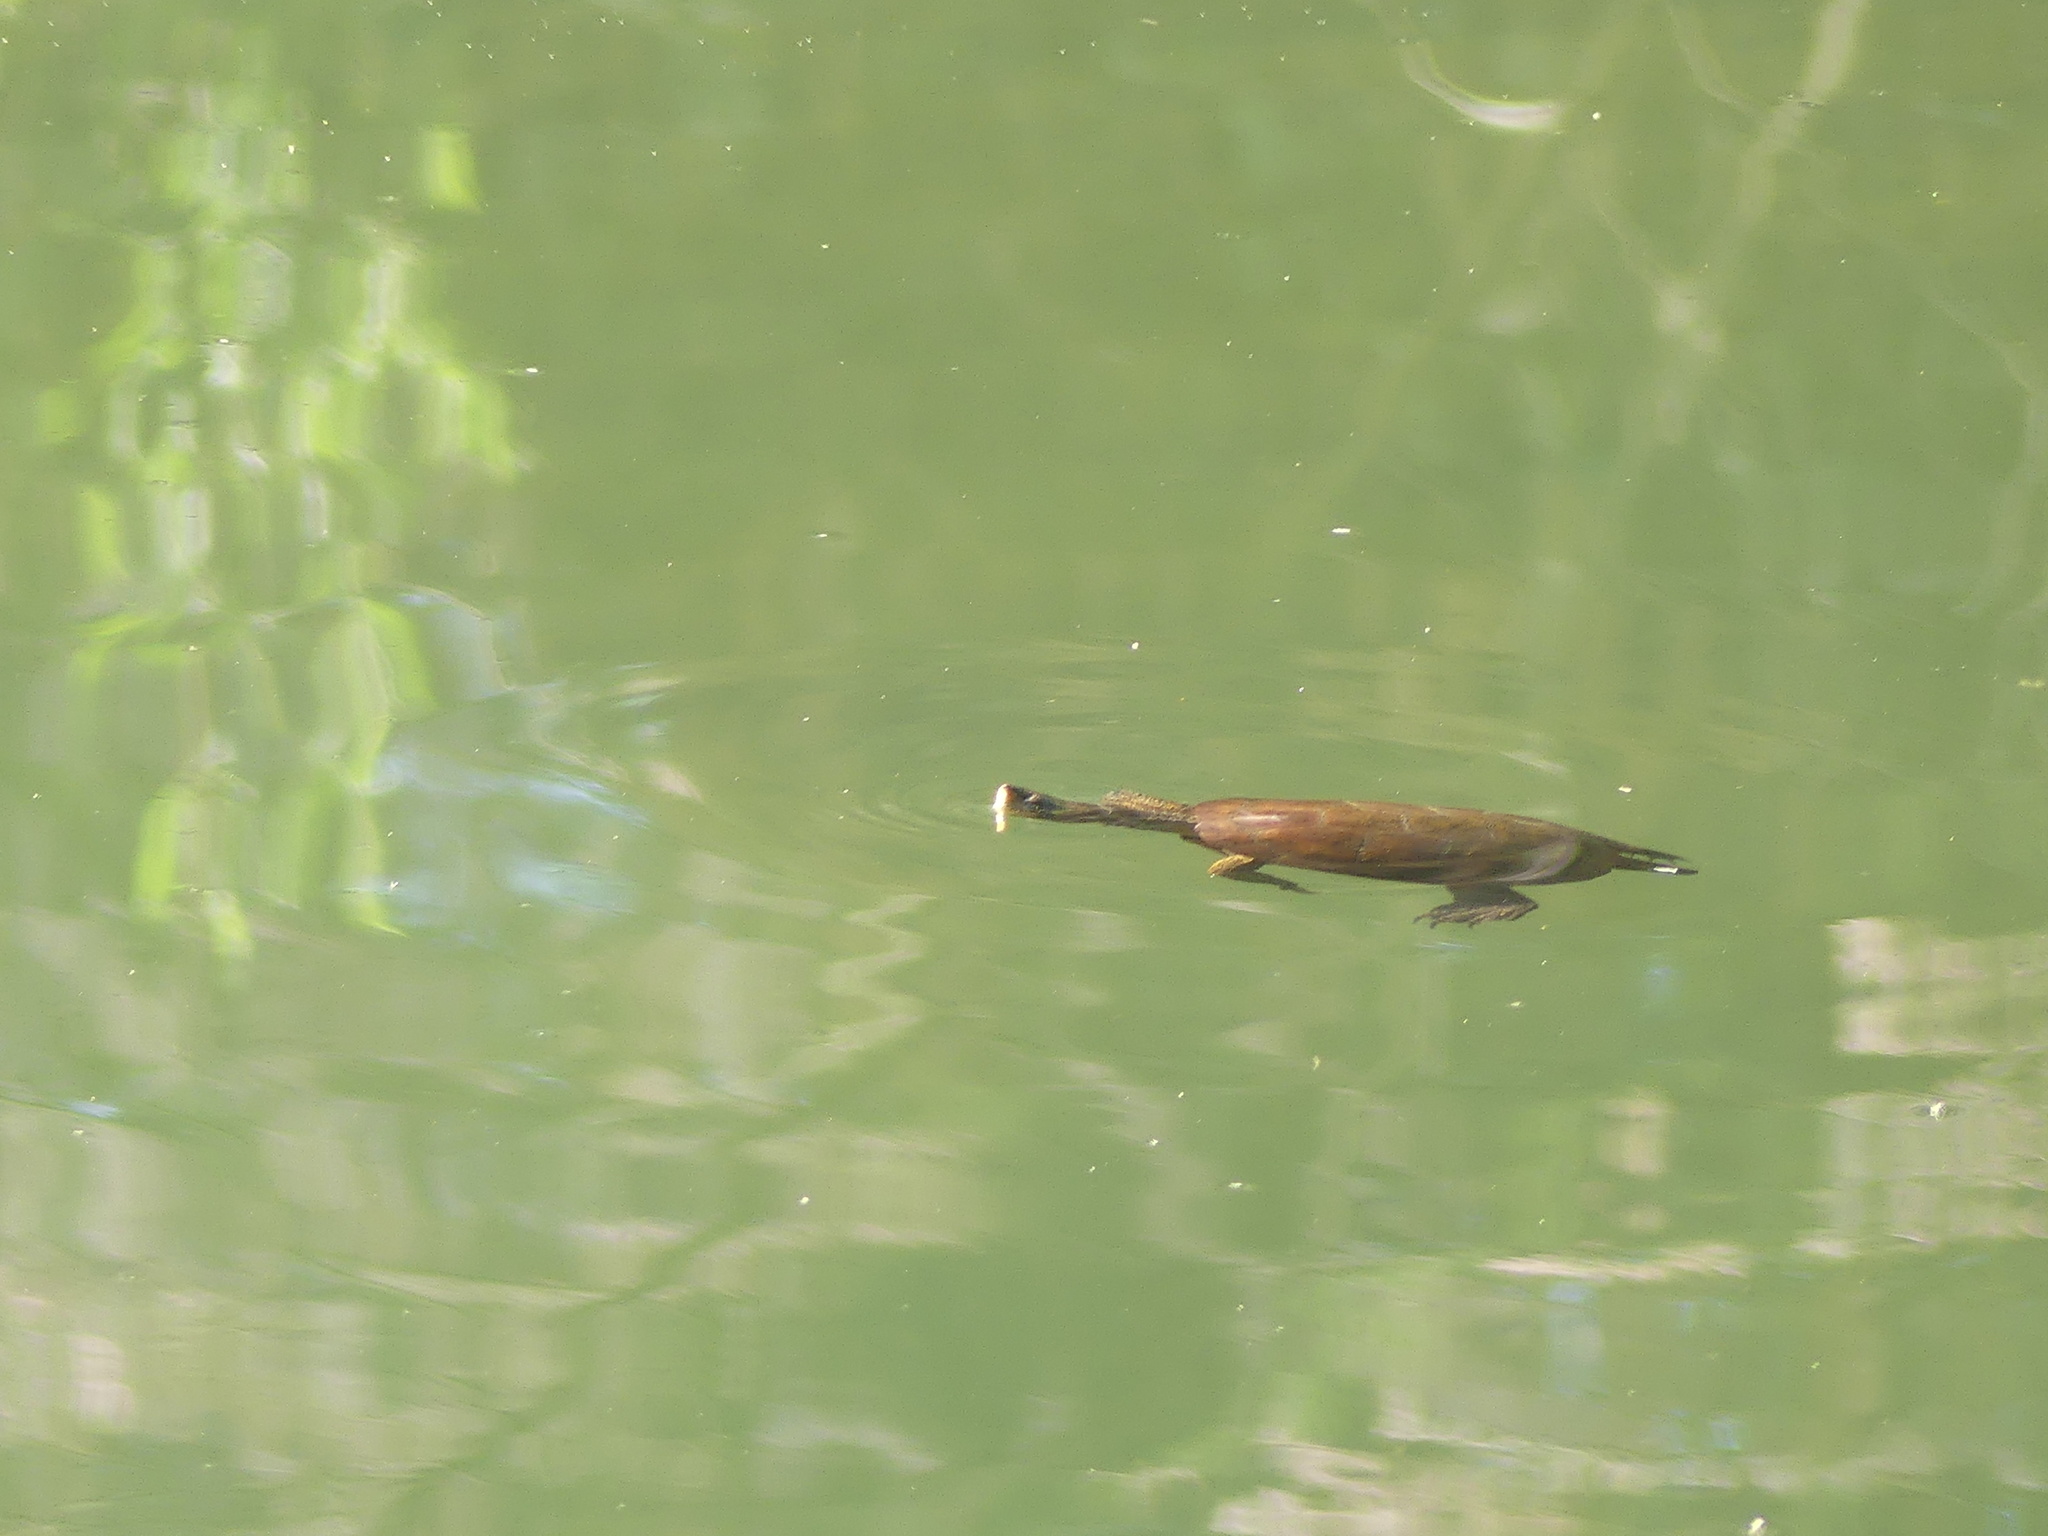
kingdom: Animalia
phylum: Chordata
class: Testudines
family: Emydidae
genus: Actinemys
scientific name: Actinemys marmorata
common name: Western pond turtle
